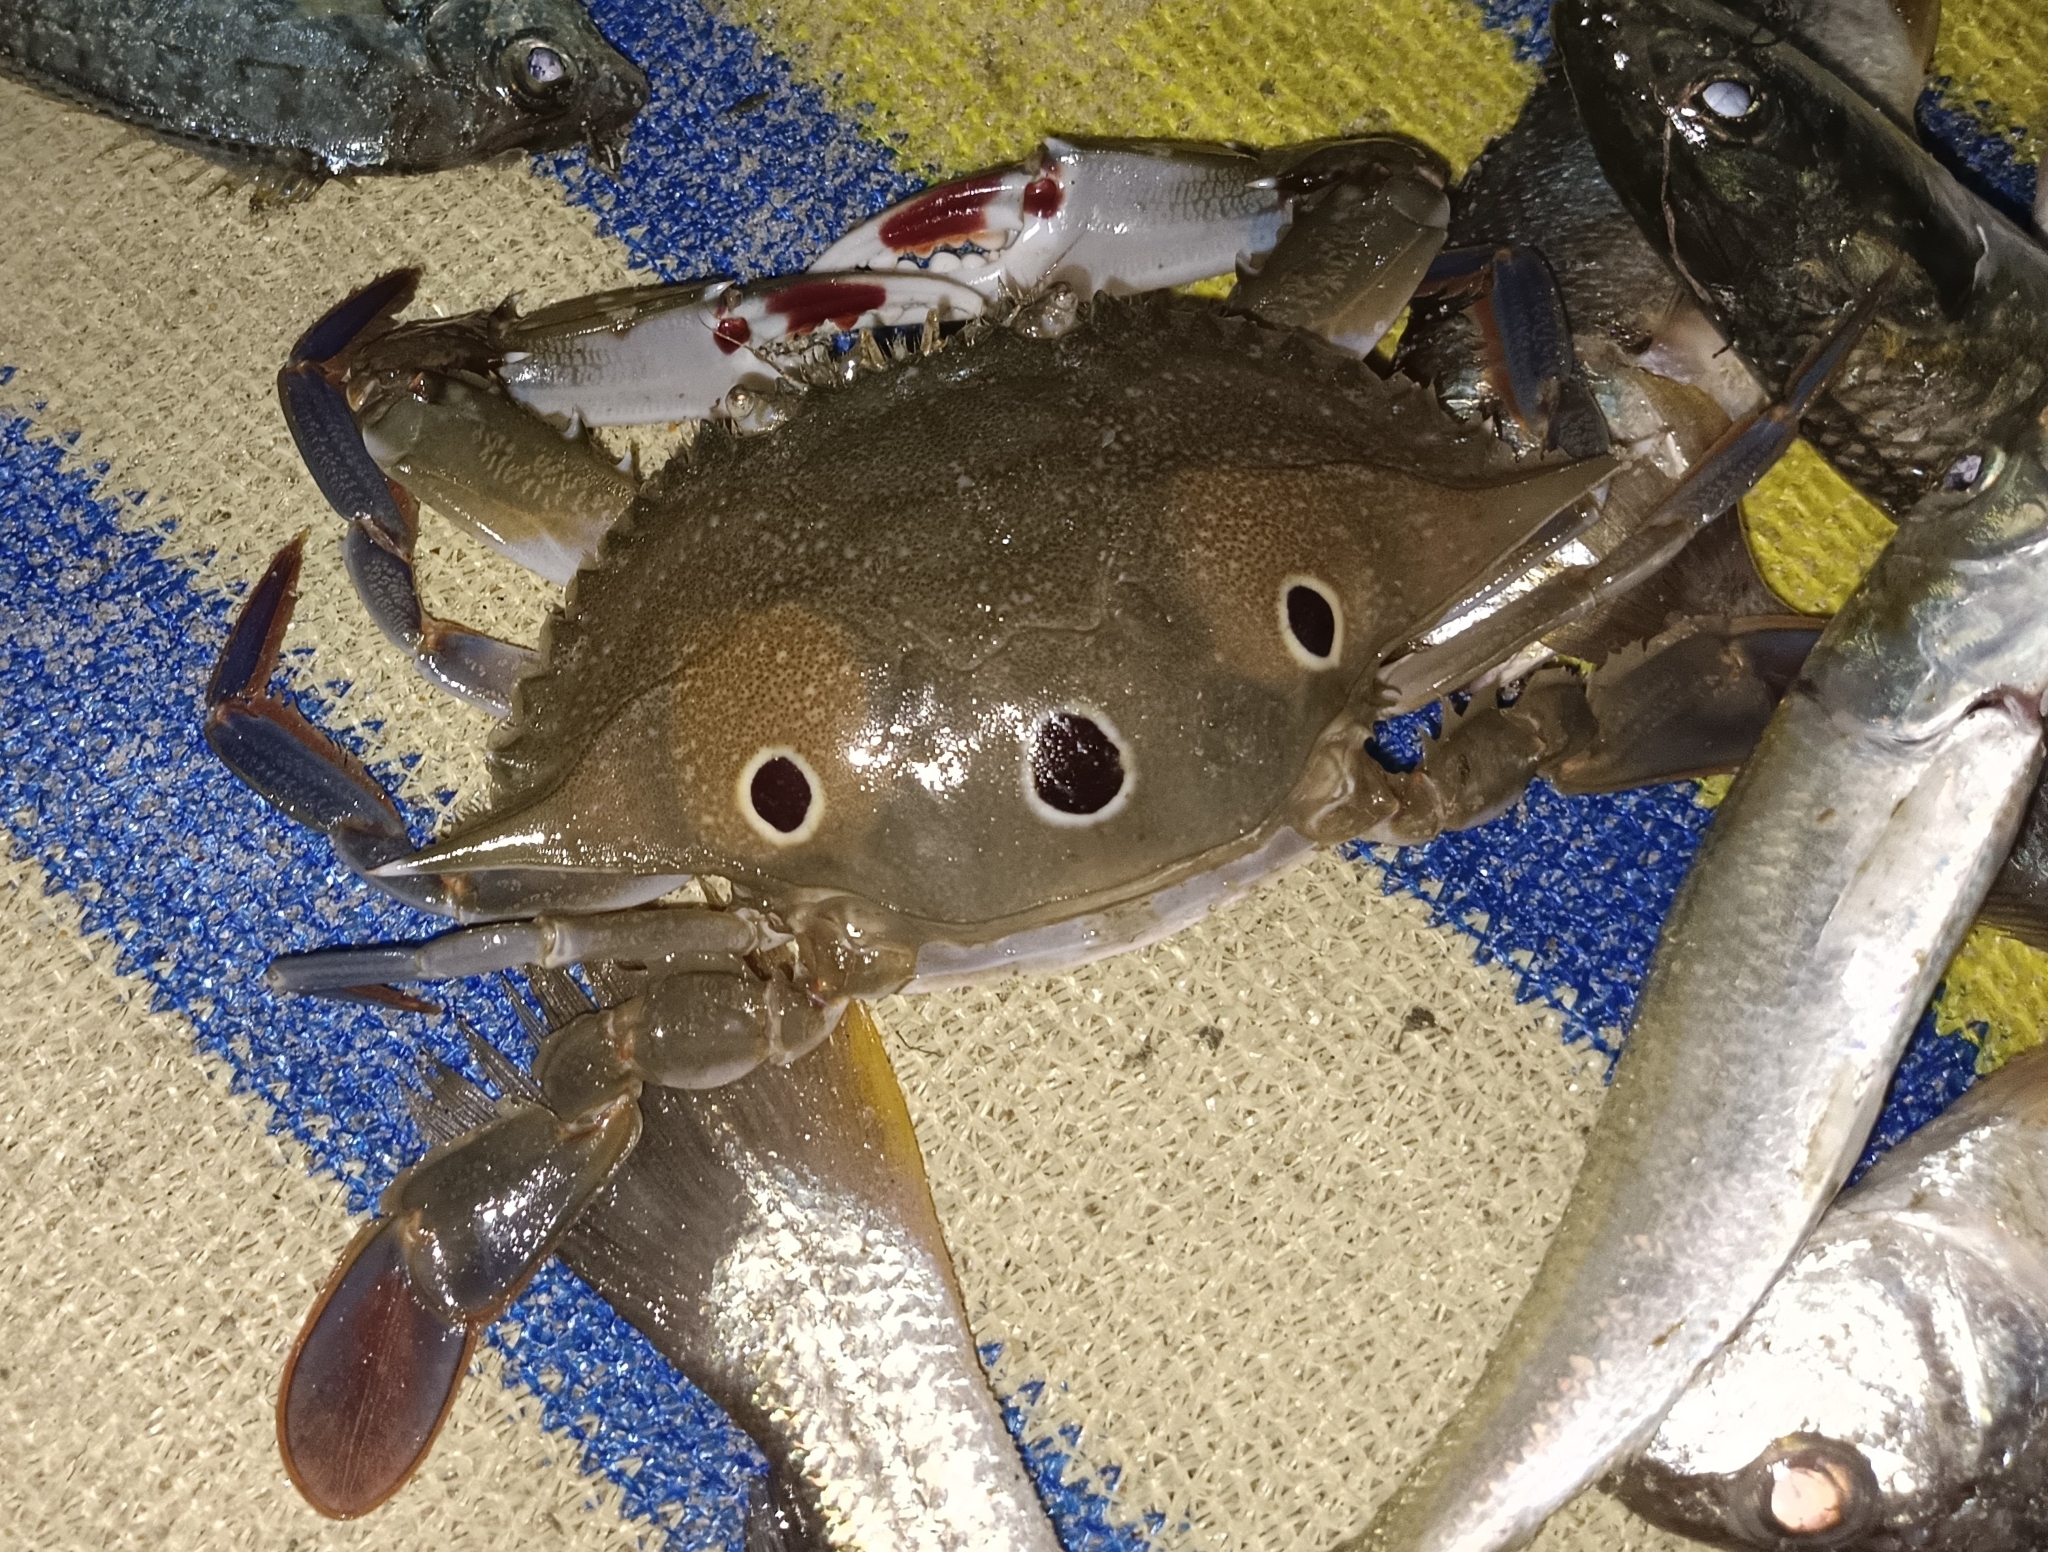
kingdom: Animalia
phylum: Arthropoda
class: Malacostraca
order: Decapoda
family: Portunidae
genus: Portunus
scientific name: Portunus sanguinolentus
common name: Blood-spotted swimming crab
